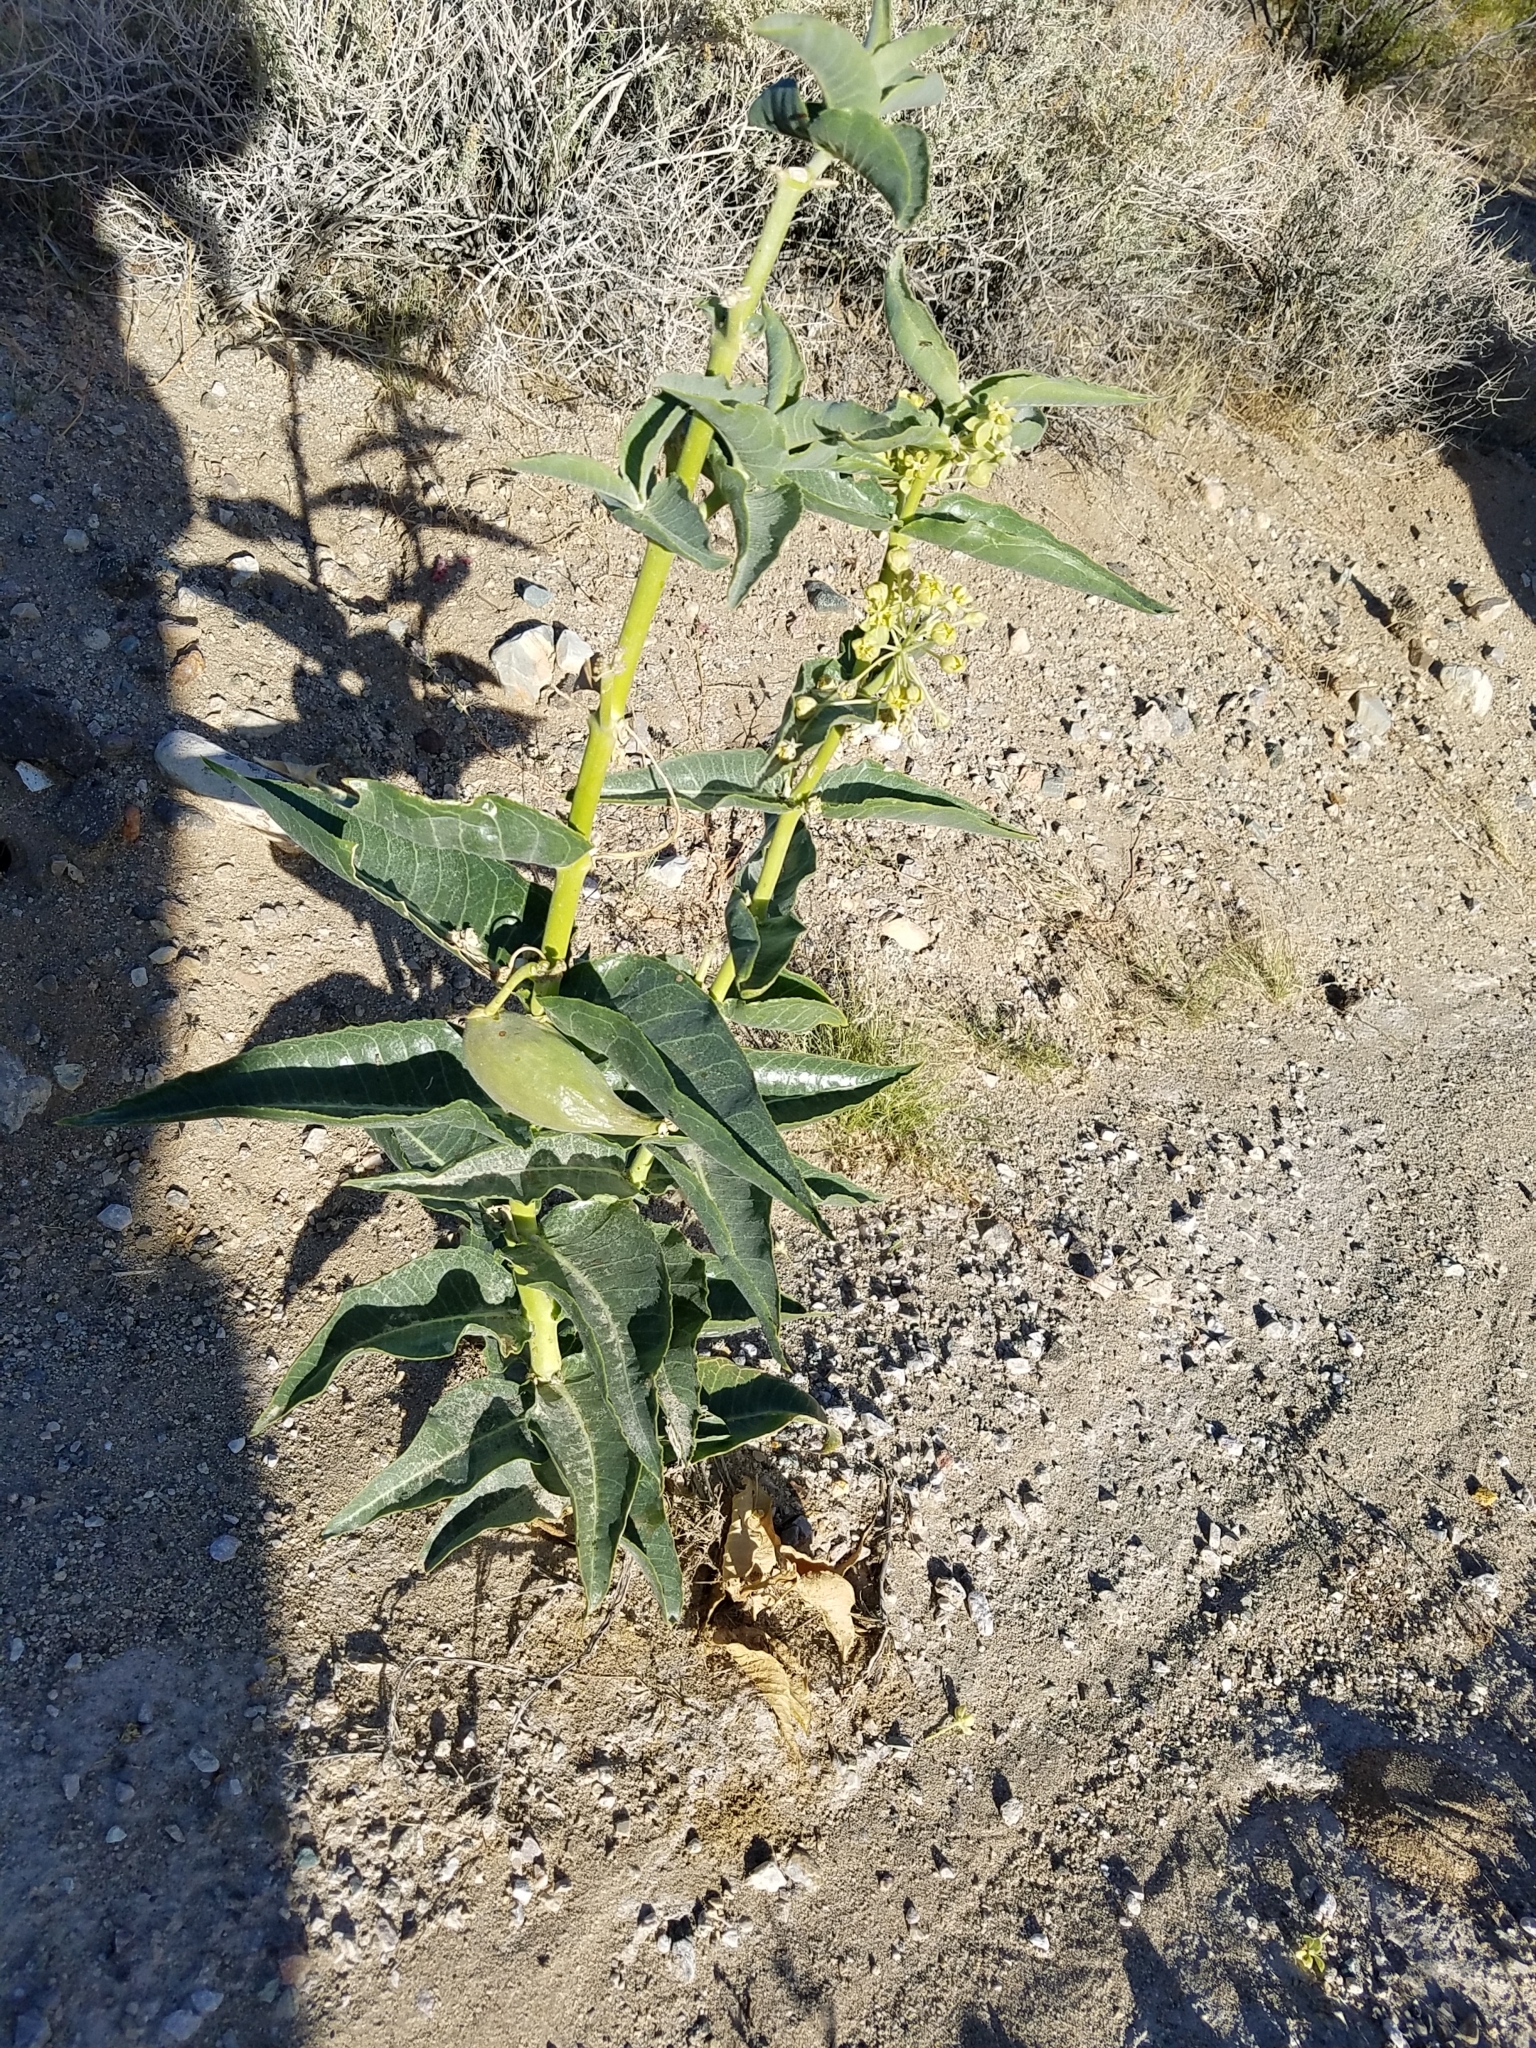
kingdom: Plantae
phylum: Tracheophyta
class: Magnoliopsida
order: Gentianales
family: Apocynaceae
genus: Asclepias
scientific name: Asclepias erosa
